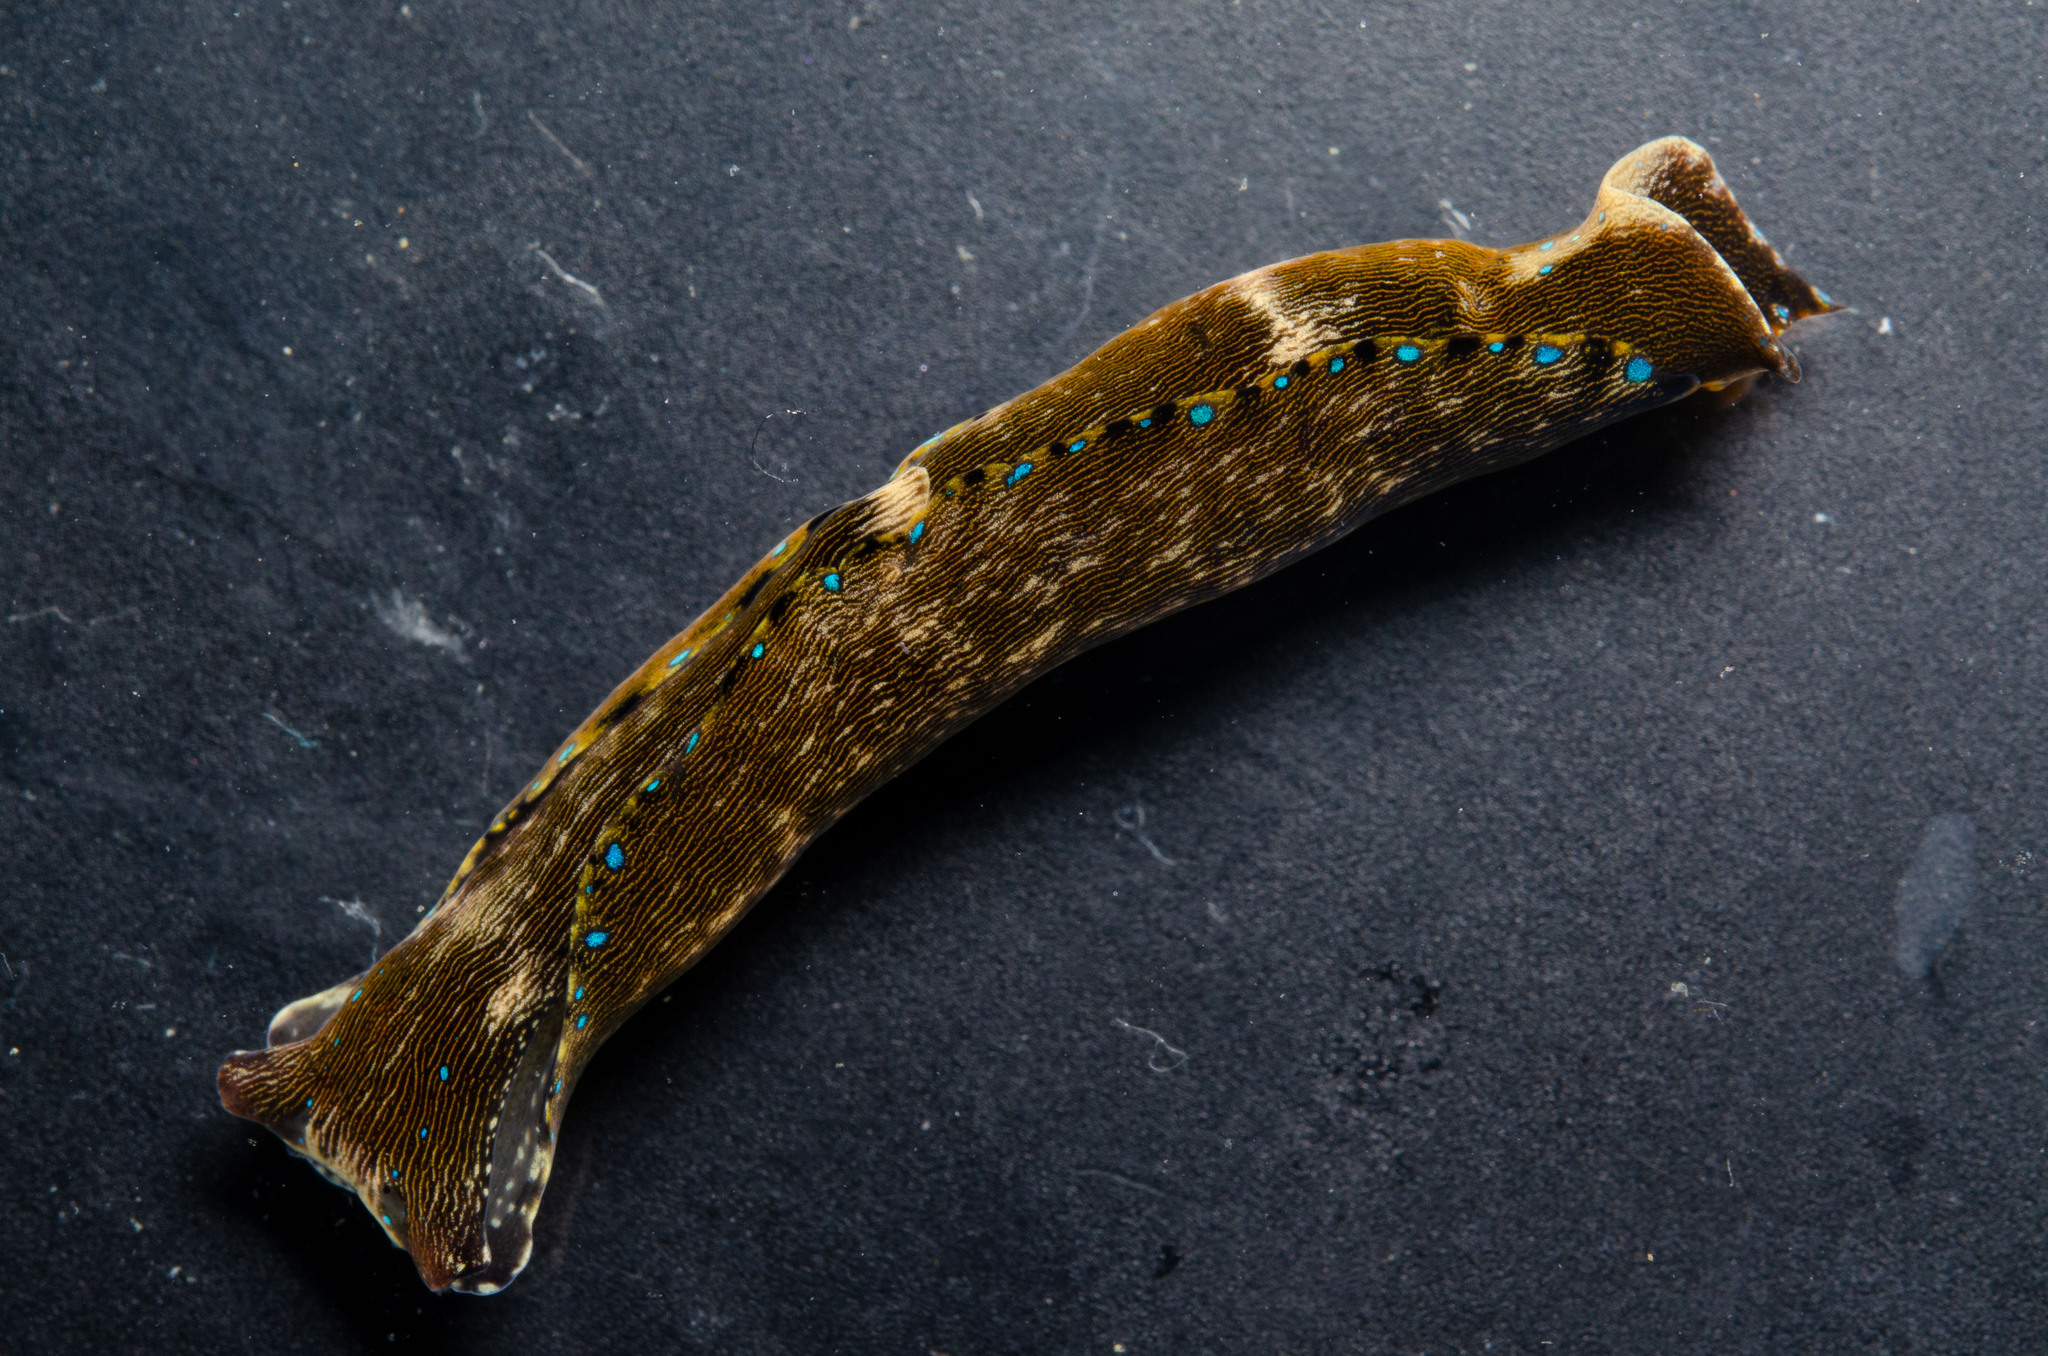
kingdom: Animalia
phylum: Mollusca
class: Gastropoda
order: Cephalaspidea
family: Aglajidae
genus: Navanax
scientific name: Navanax aenigmaticus
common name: Striated aglaja
